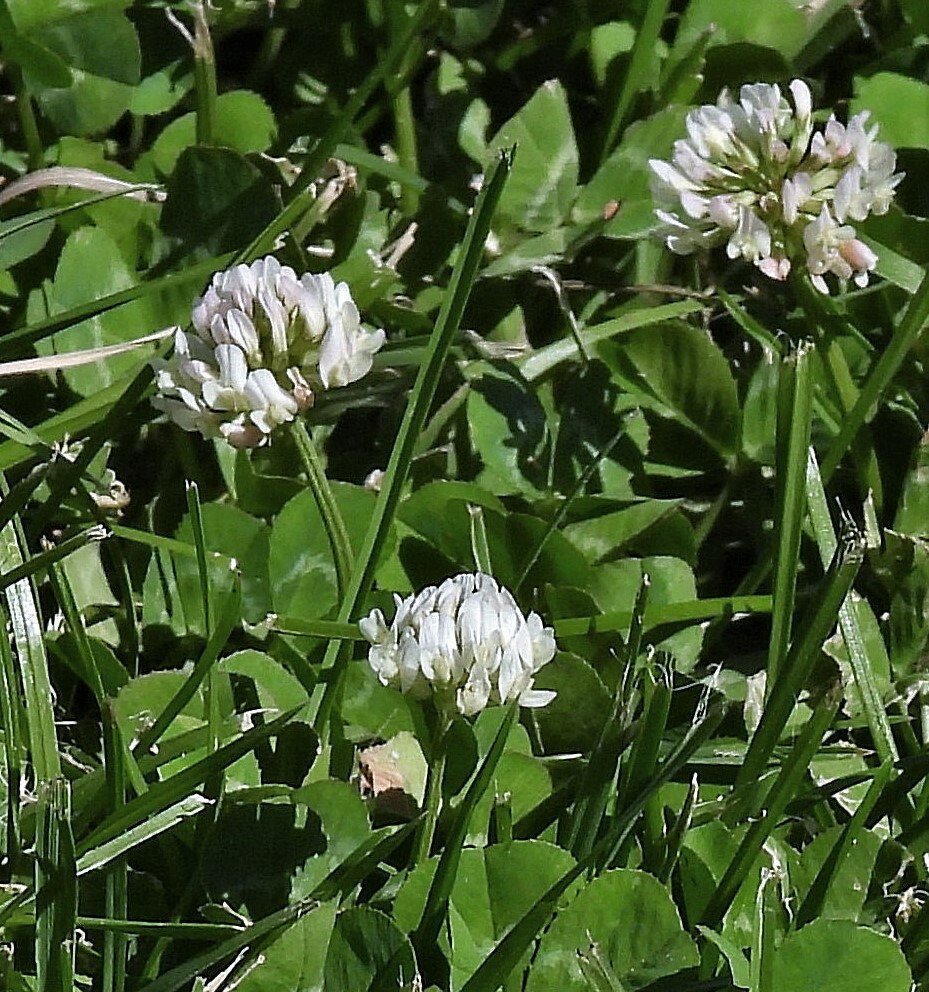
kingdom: Plantae
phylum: Tracheophyta
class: Magnoliopsida
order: Fabales
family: Fabaceae
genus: Trifolium
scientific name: Trifolium repens
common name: White clover
